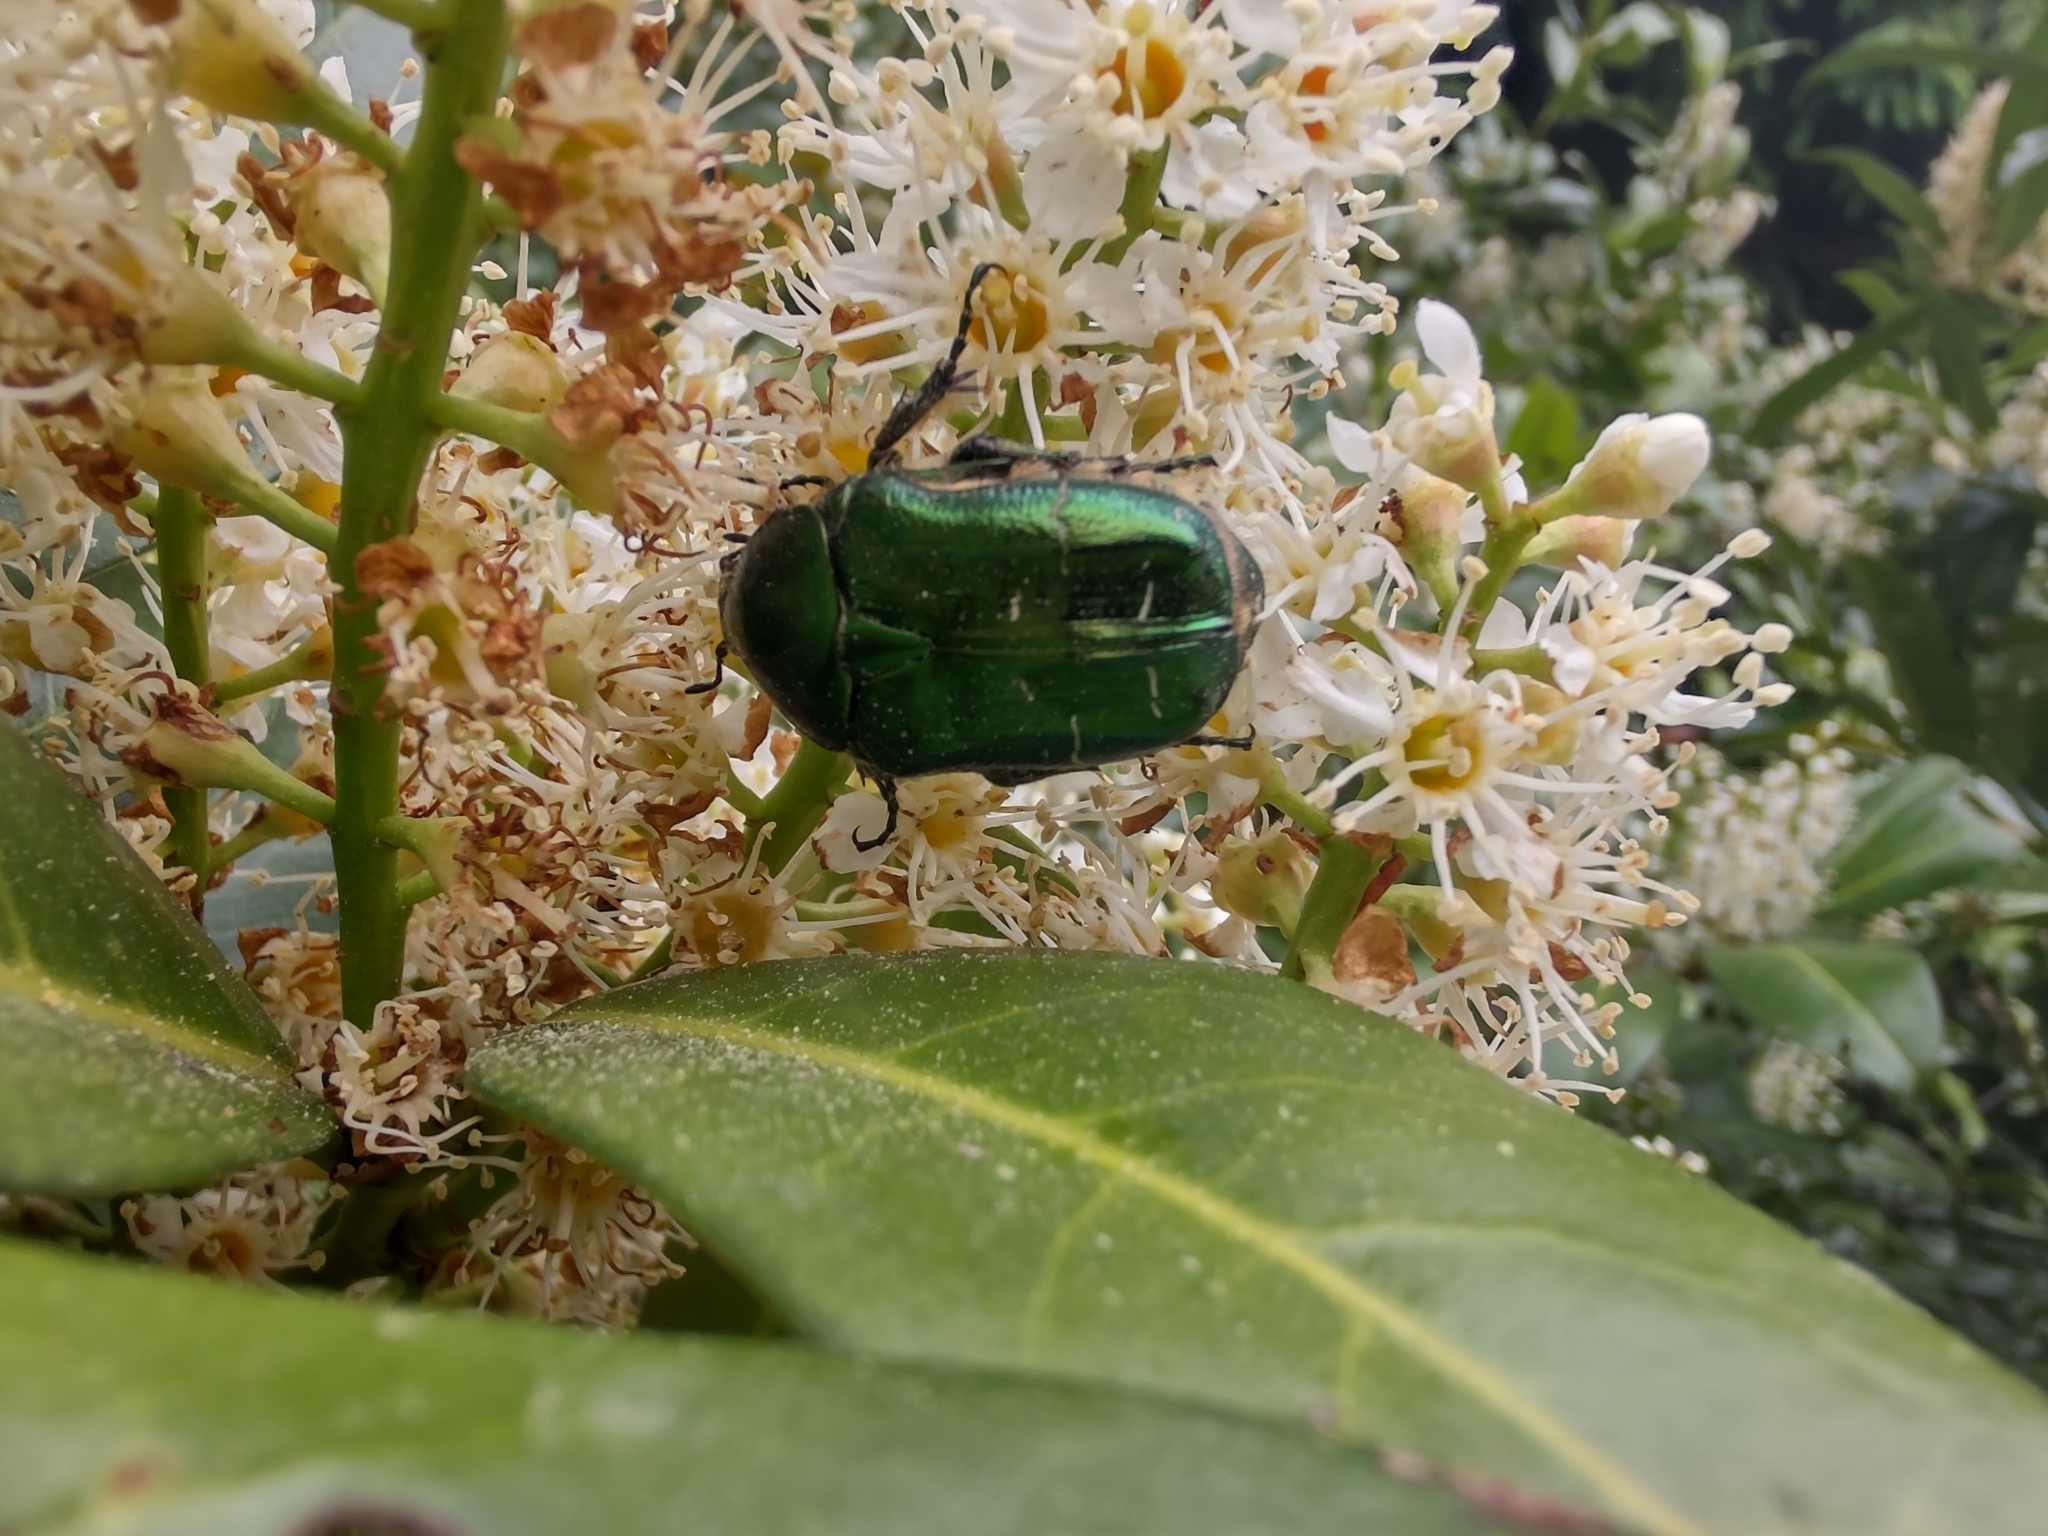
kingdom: Animalia
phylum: Arthropoda
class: Insecta
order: Coleoptera
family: Scarabaeidae
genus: Cetonia
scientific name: Cetonia aurata
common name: Rose chafer
